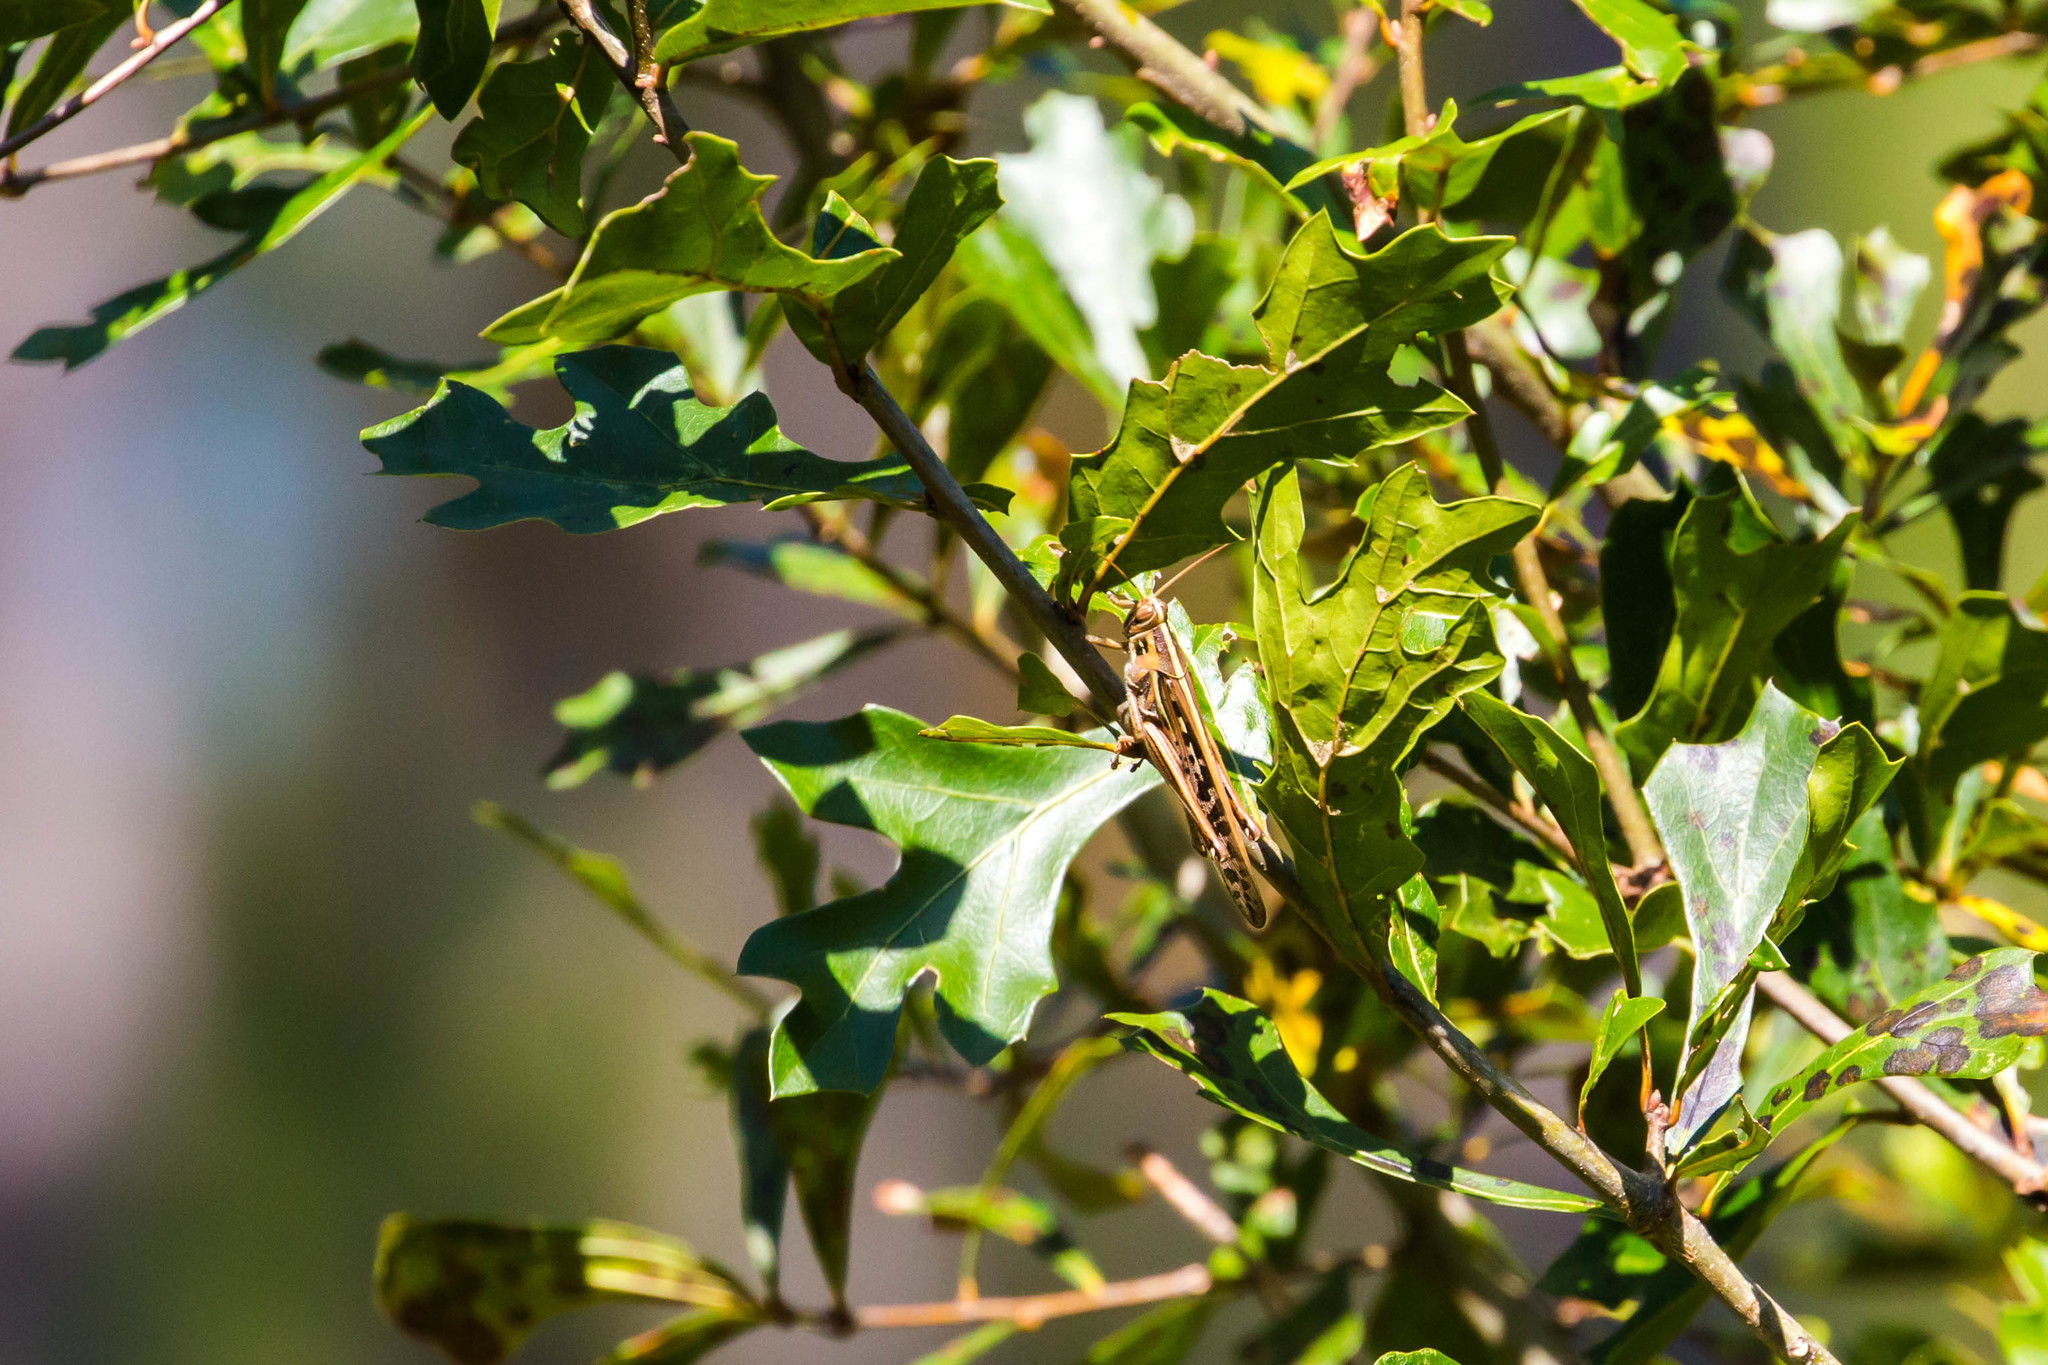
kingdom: Animalia
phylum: Arthropoda
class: Insecta
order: Orthoptera
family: Acrididae
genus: Schistocerca
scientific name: Schistocerca americana
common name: American bird locust
